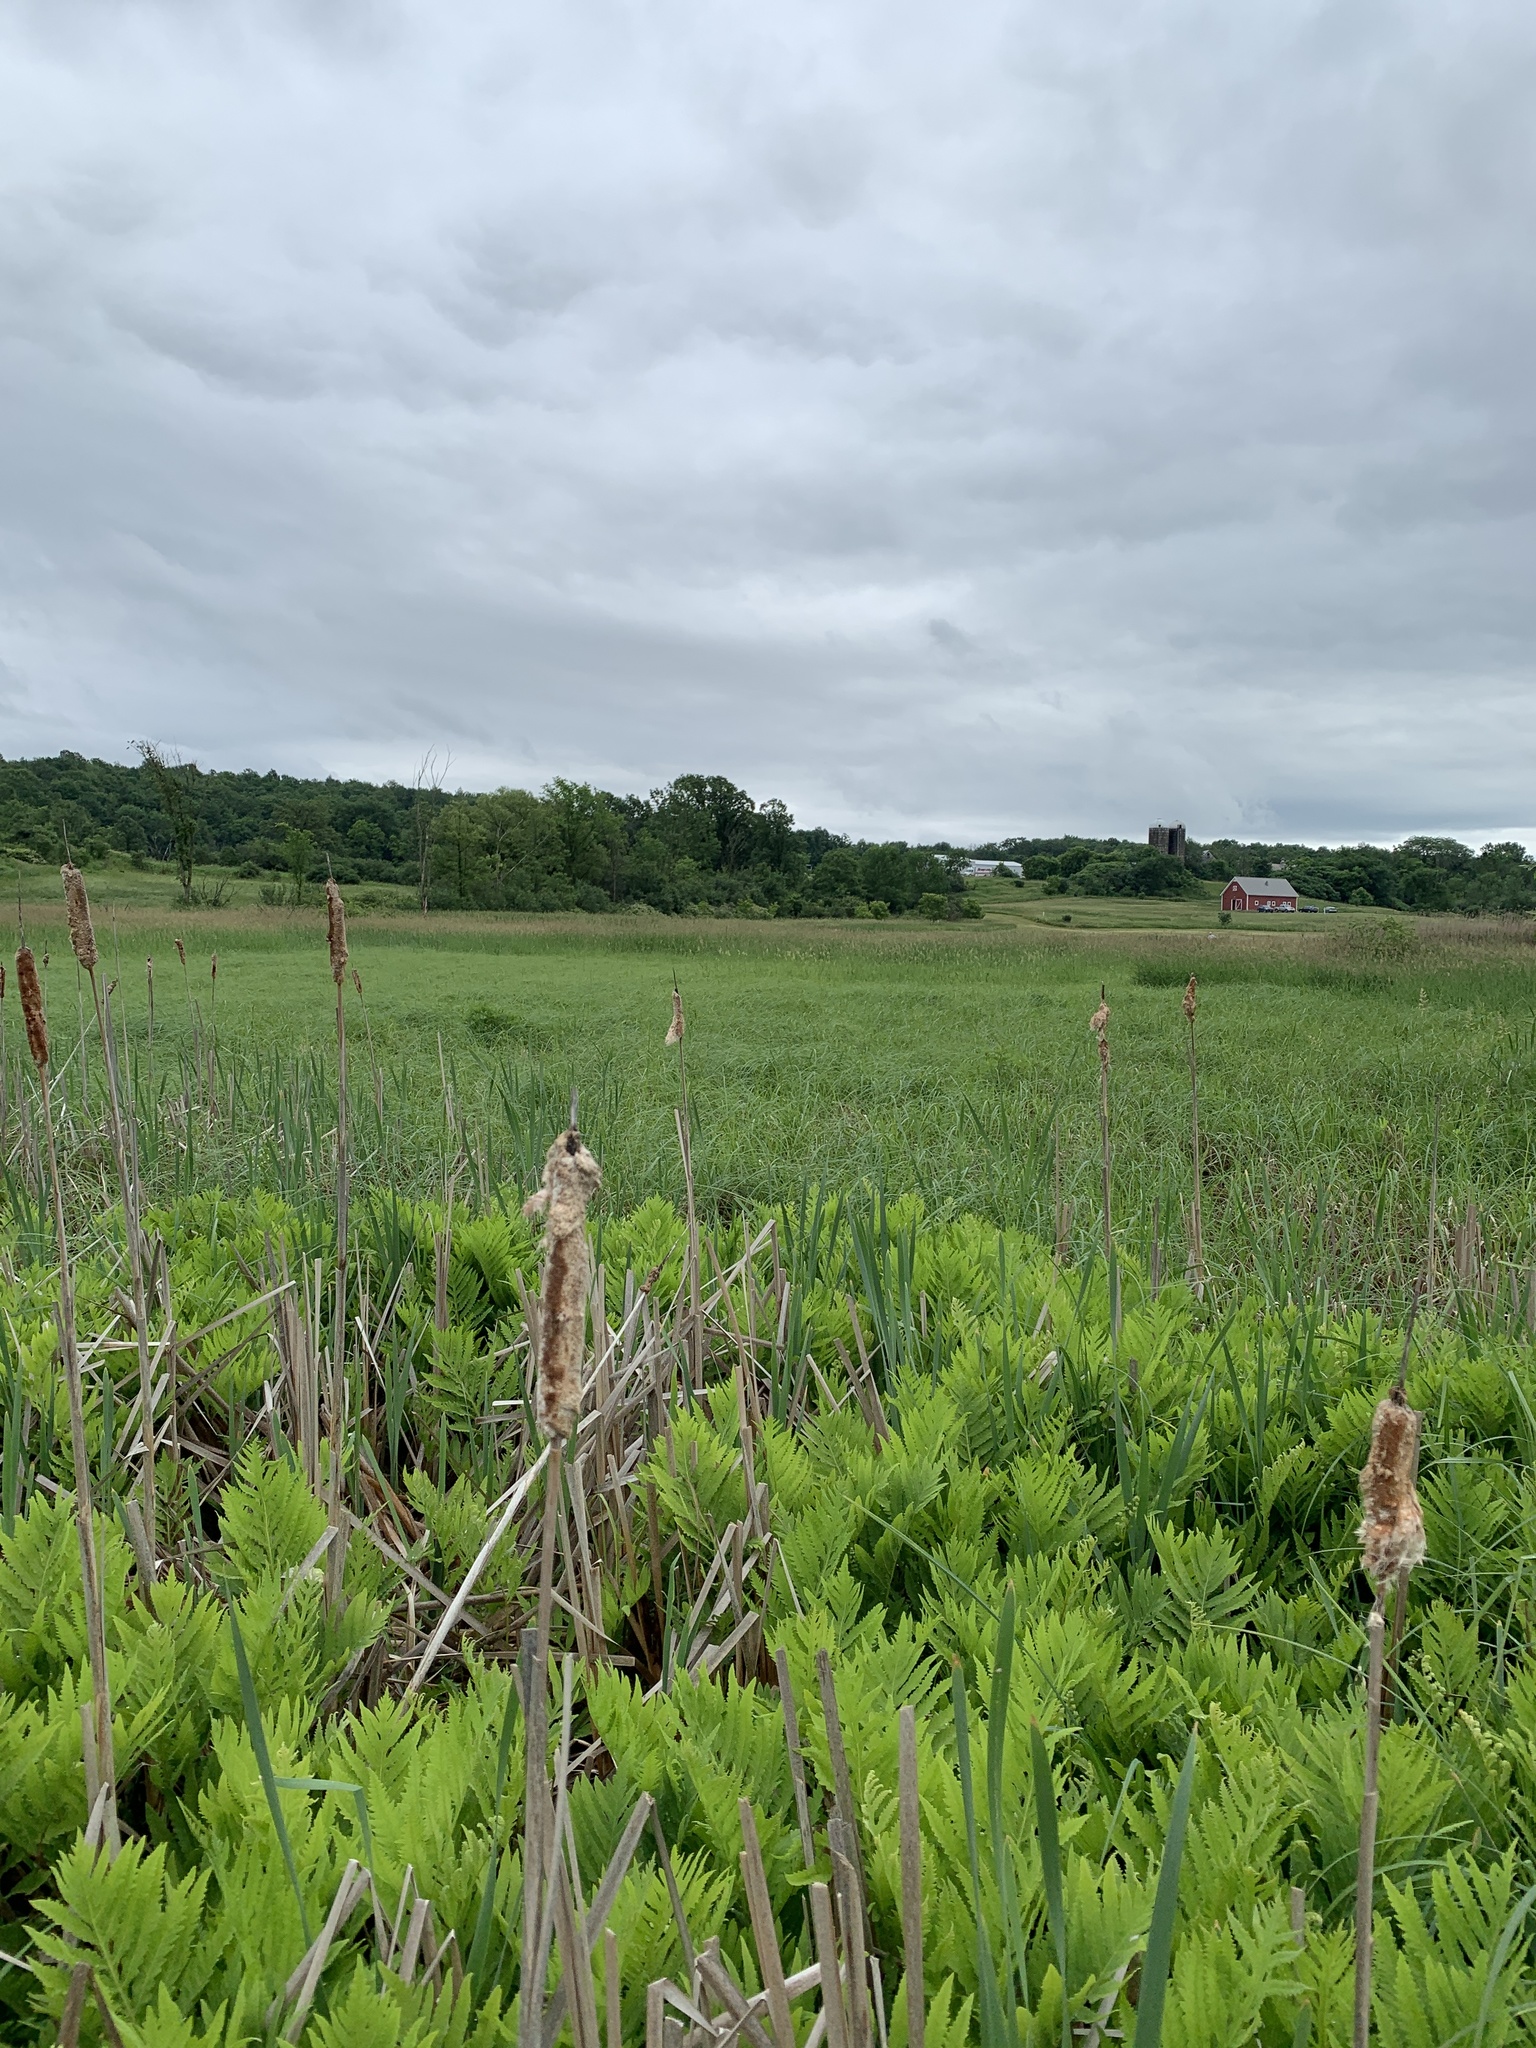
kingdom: Plantae
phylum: Tracheophyta
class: Polypodiopsida
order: Polypodiales
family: Onocleaceae
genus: Onoclea
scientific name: Onoclea sensibilis
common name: Sensitive fern
